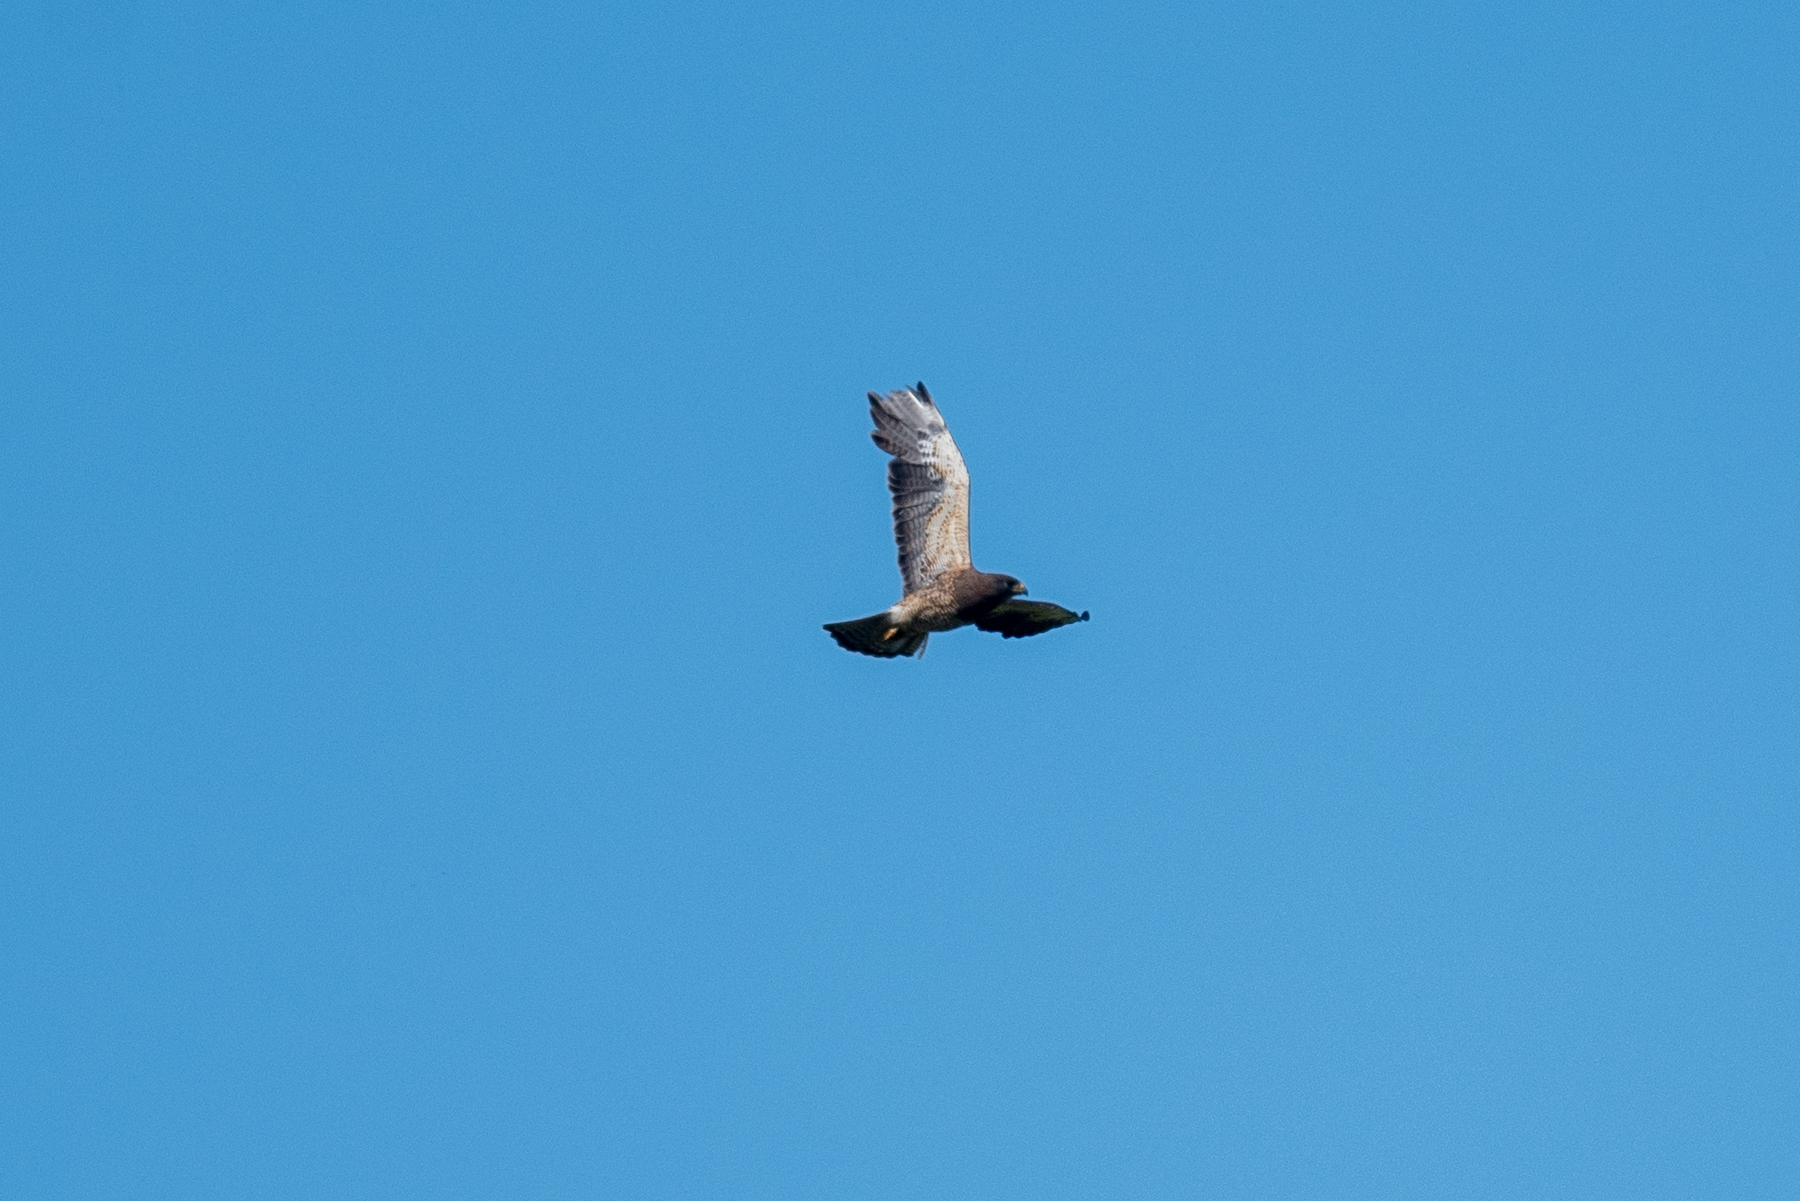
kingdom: Animalia
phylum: Chordata
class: Aves
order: Accipitriformes
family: Accipitridae
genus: Buteo
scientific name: Buteo swainsoni
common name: Swainson's hawk
